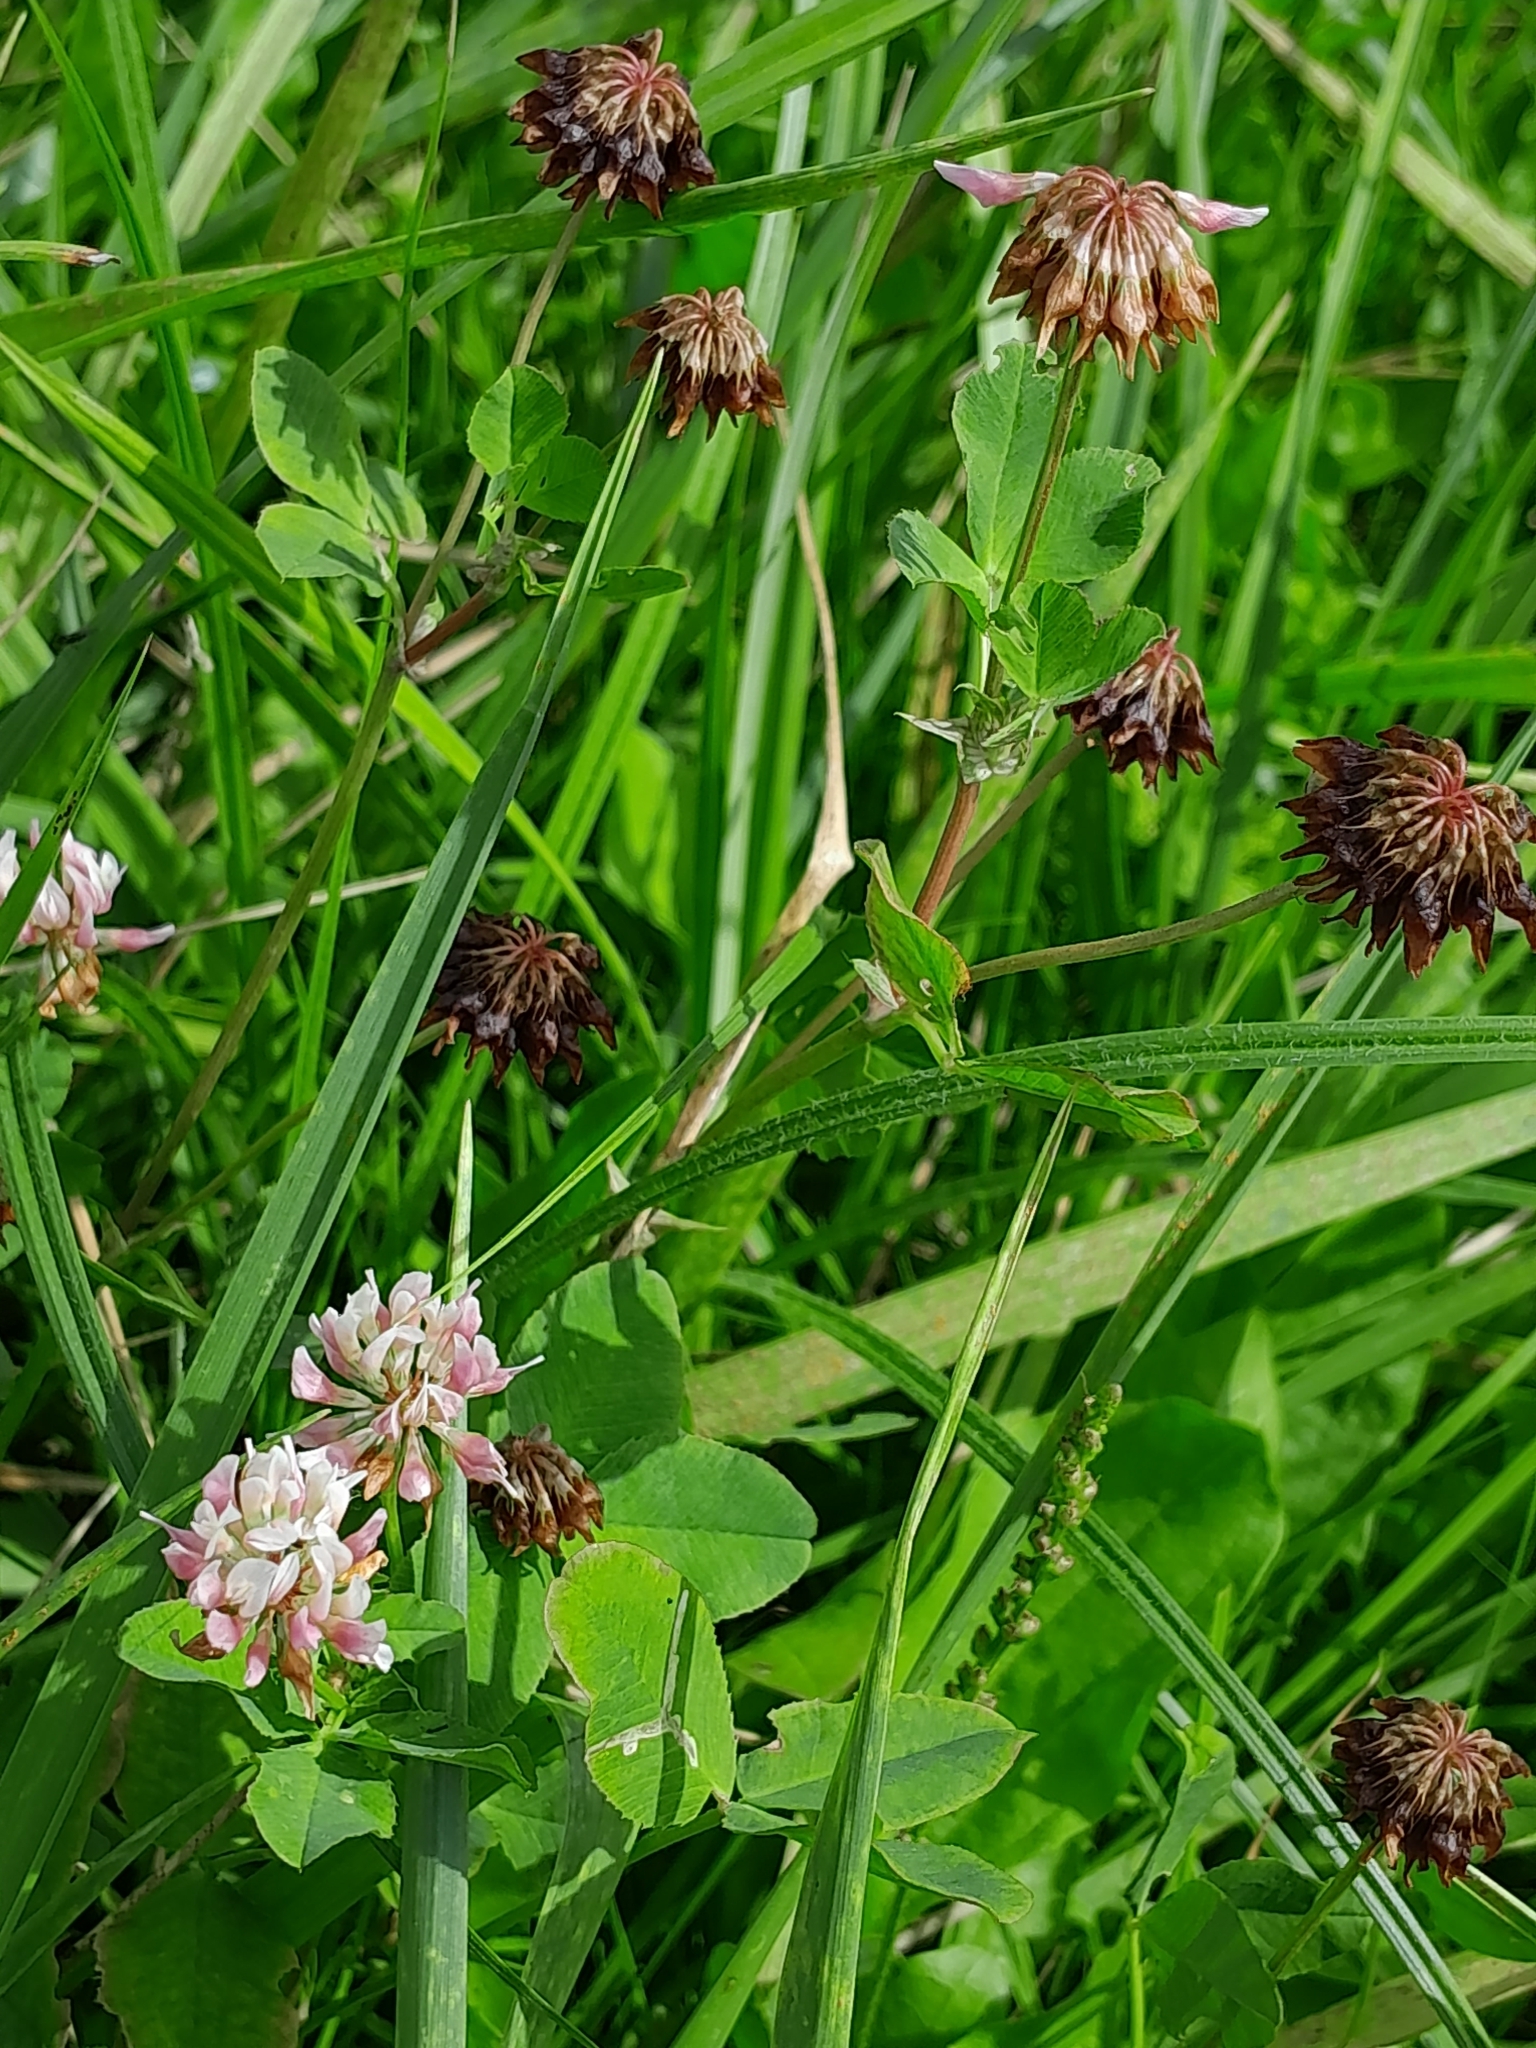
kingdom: Plantae
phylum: Tracheophyta
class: Magnoliopsida
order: Fabales
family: Fabaceae
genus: Trifolium
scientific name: Trifolium hybridum
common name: Alsike clover
